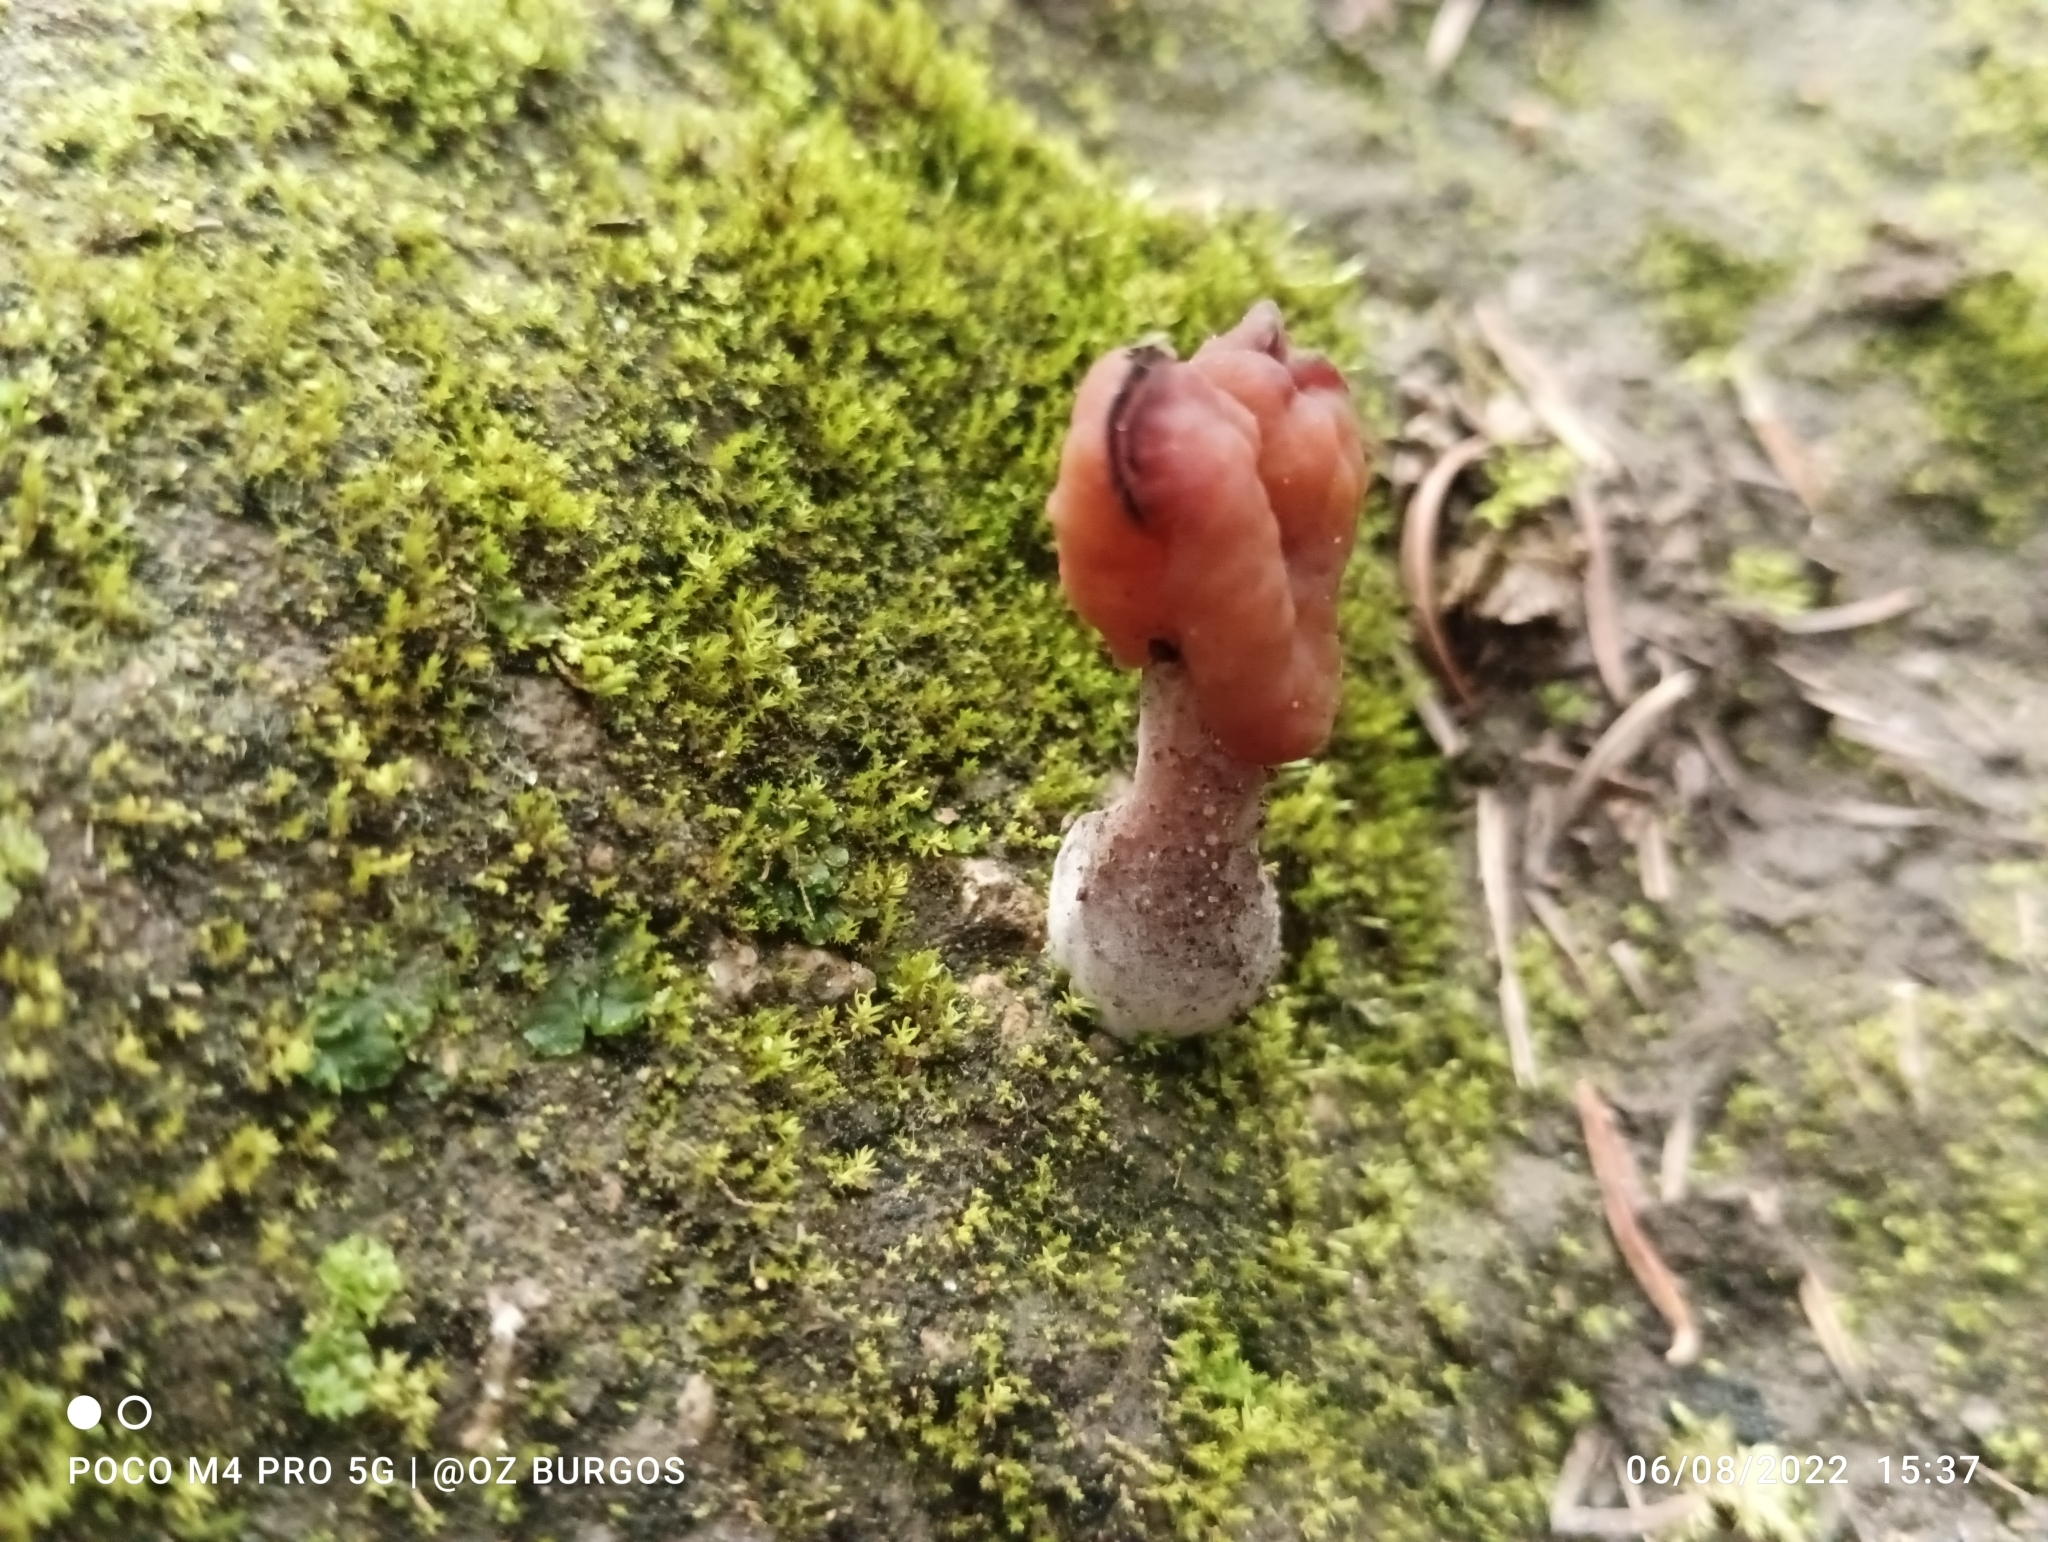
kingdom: Fungi
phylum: Ascomycota
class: Pezizomycetes
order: Pezizales
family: Discinaceae
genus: Gyromitra
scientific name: Gyromitra infula
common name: Pouched false morel
